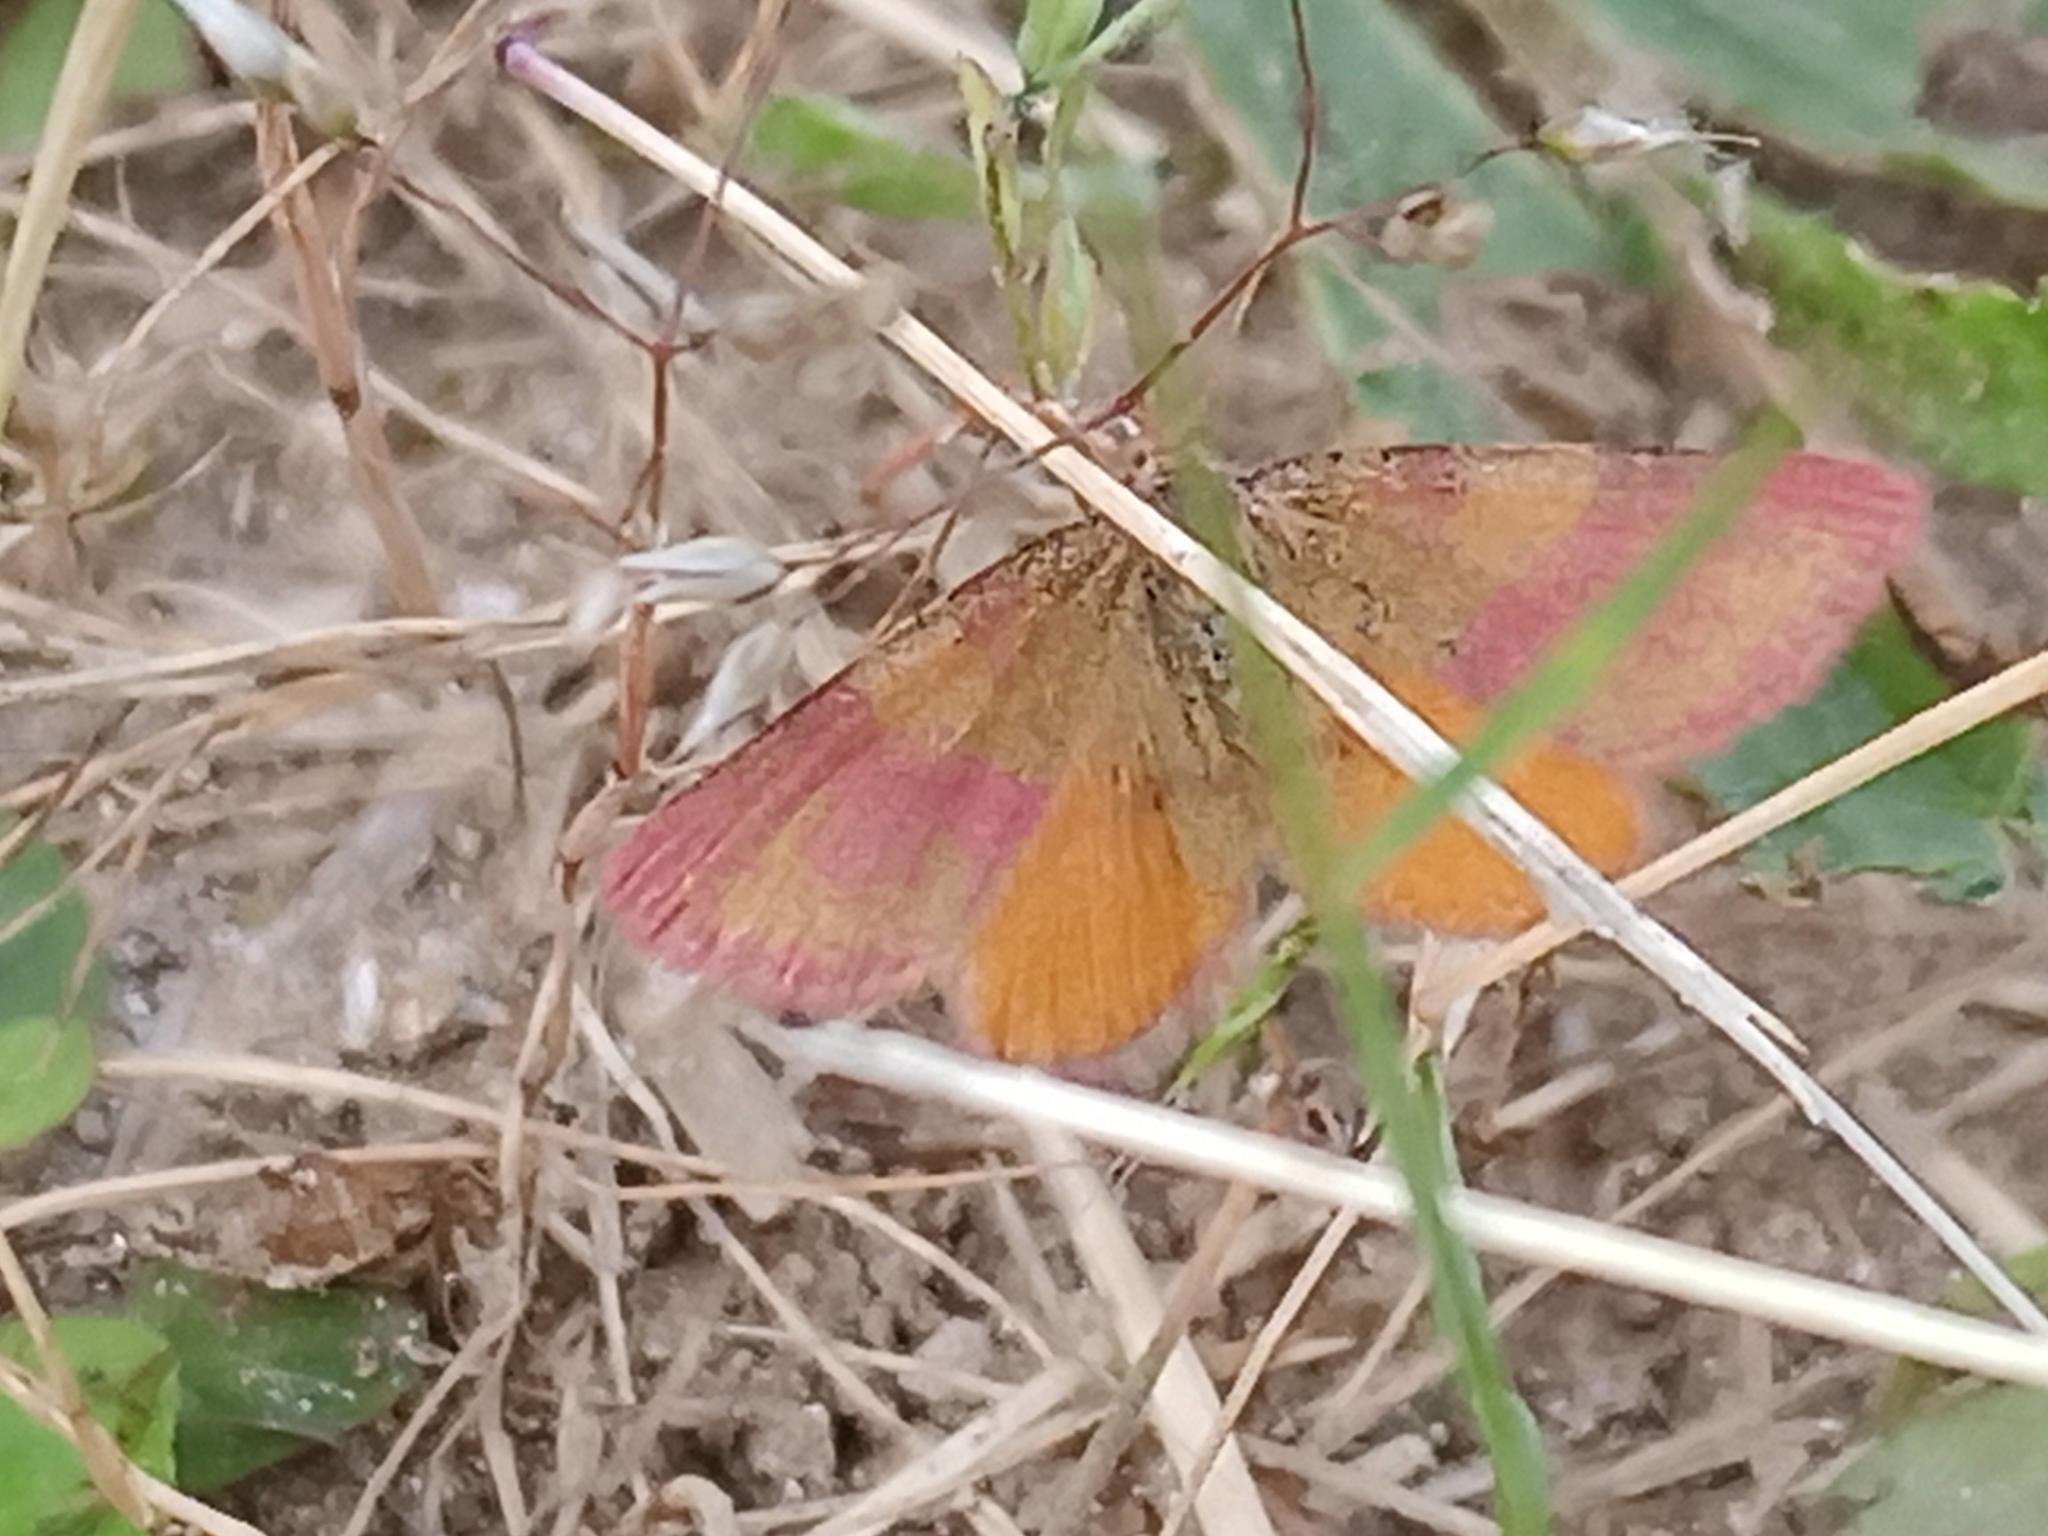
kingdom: Animalia
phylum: Arthropoda
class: Insecta
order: Lepidoptera
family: Geometridae
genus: Lythria
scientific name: Lythria cruentaria
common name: Purple-barred yellow
